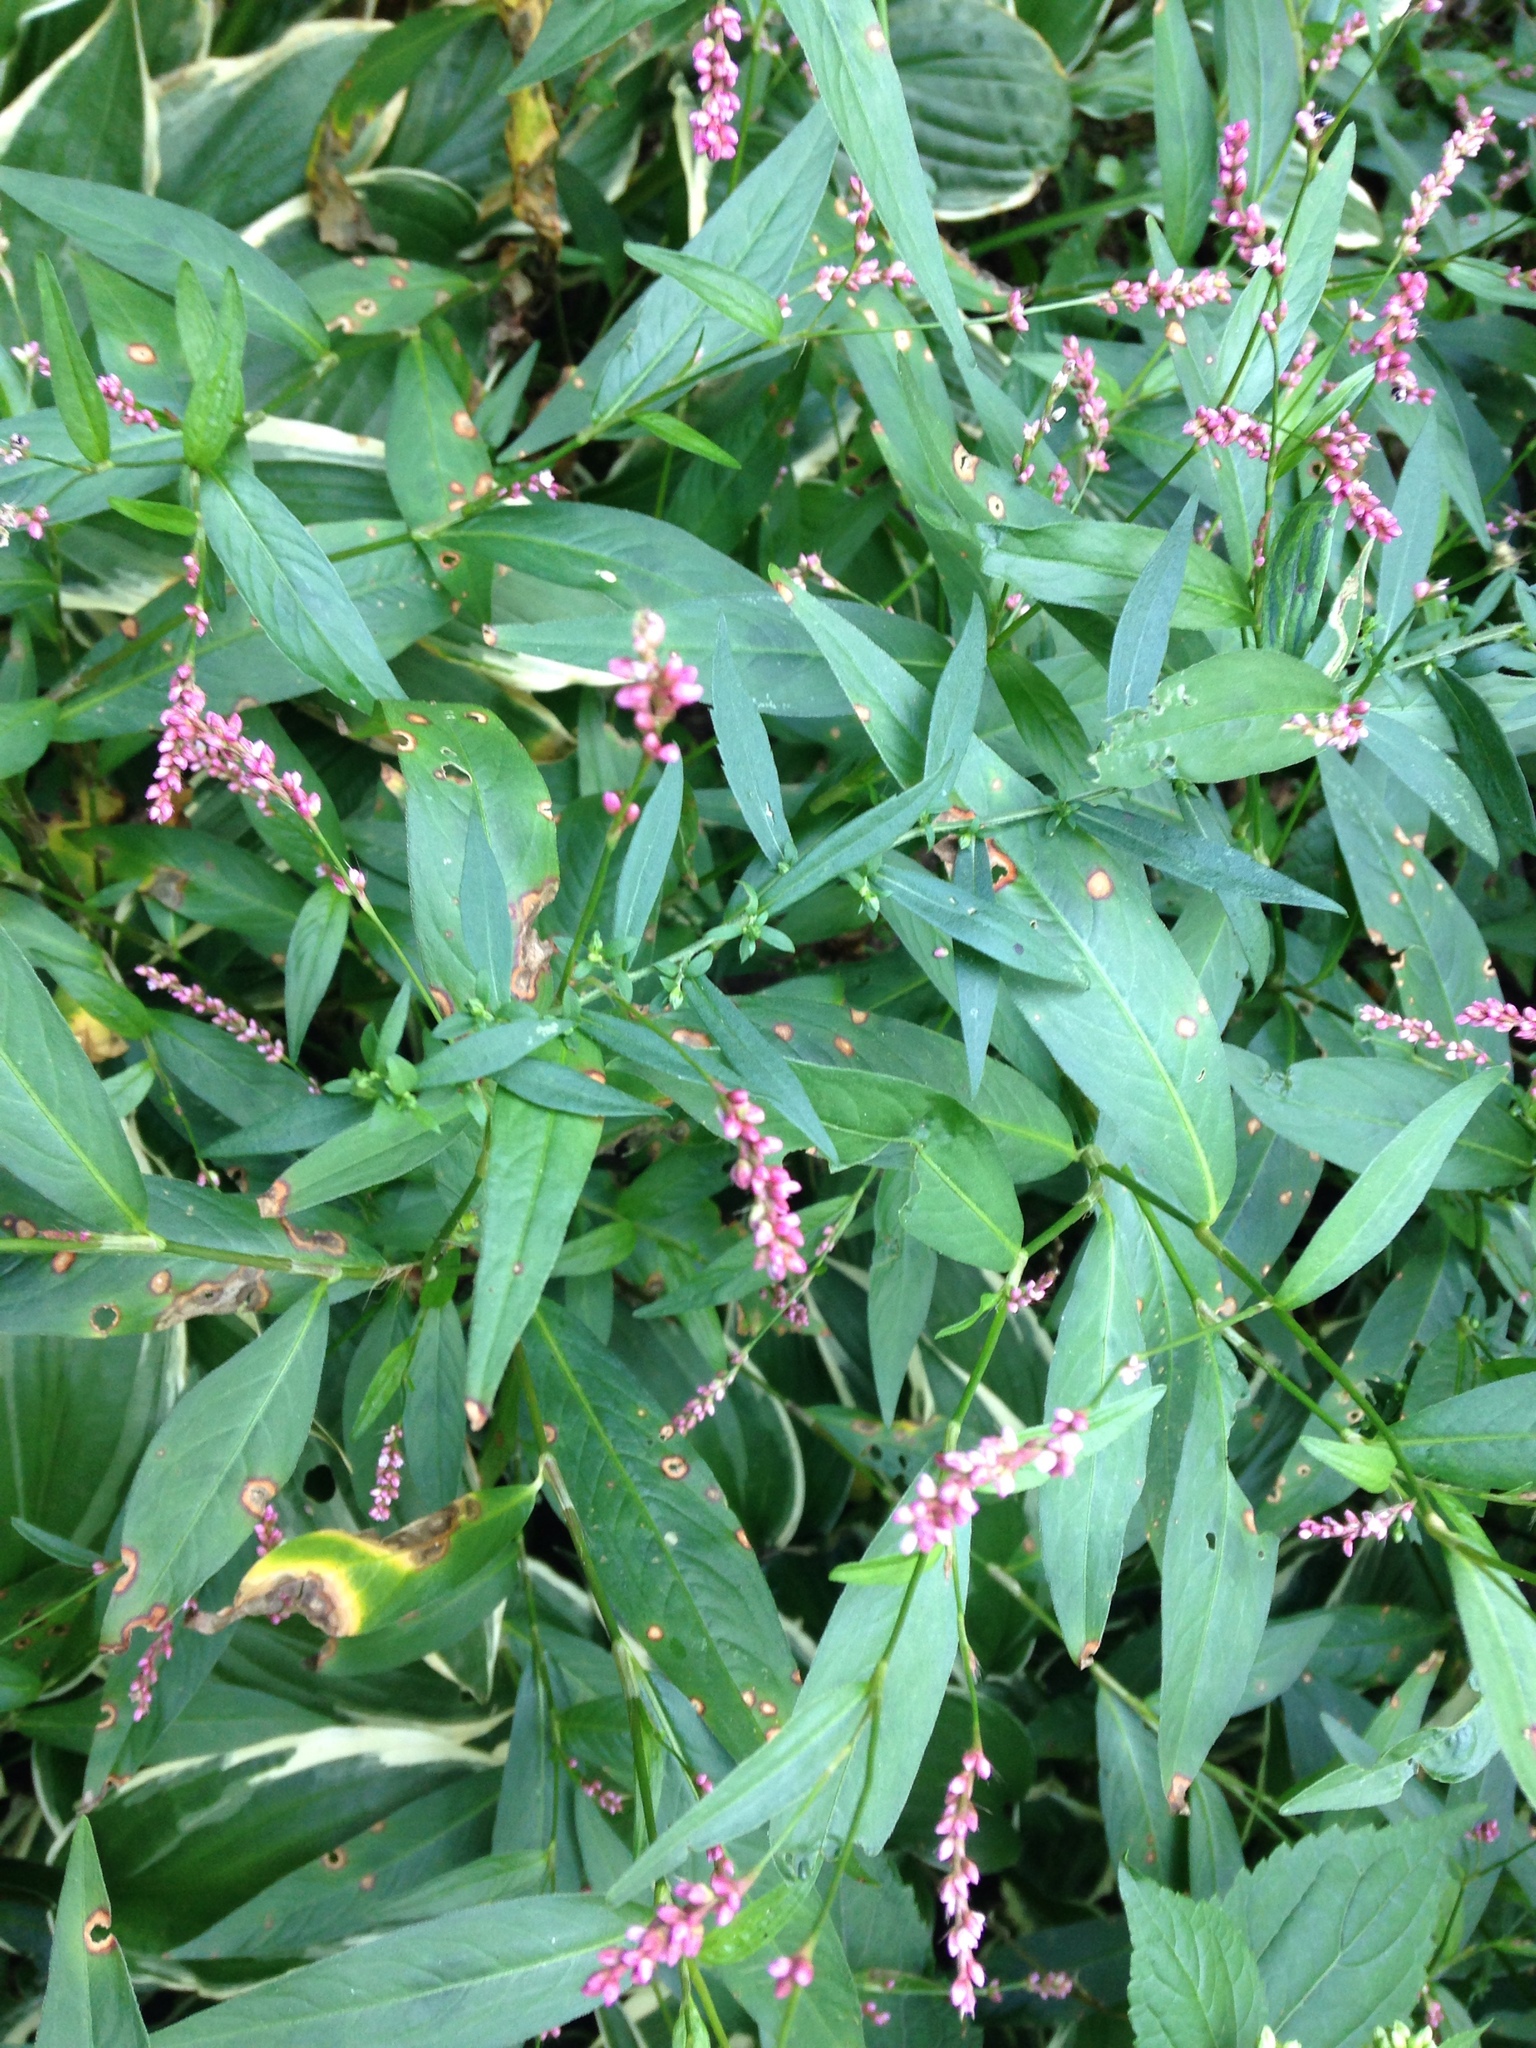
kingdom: Plantae
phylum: Tracheophyta
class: Magnoliopsida
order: Caryophyllales
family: Polygonaceae
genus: Persicaria
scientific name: Persicaria longiseta
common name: Bristly lady's-thumb
